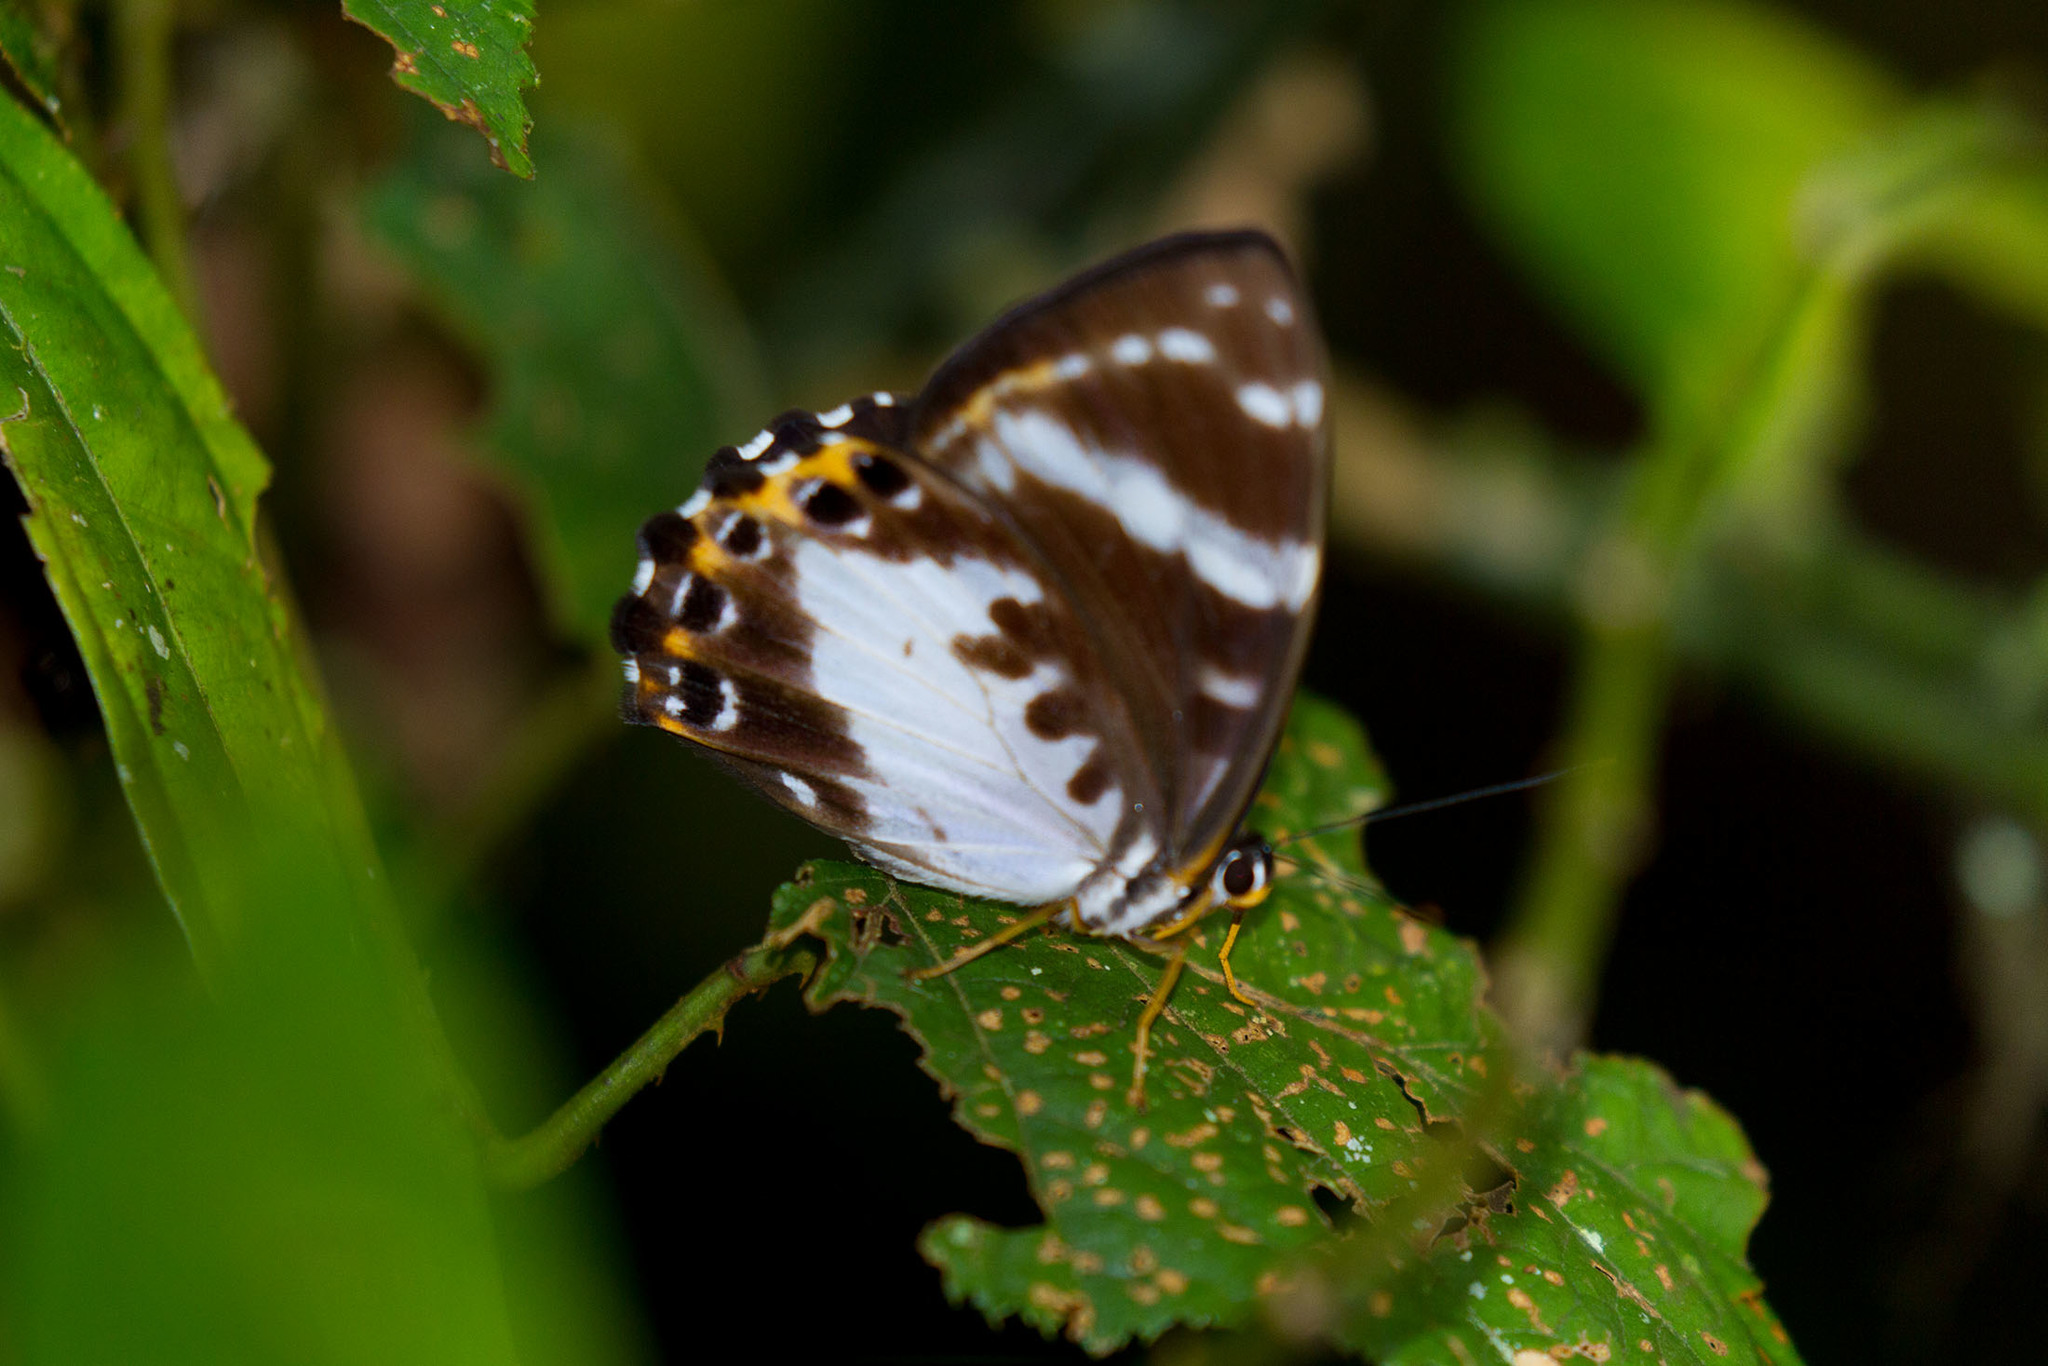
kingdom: Animalia
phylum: Arthropoda
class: Insecta
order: Lepidoptera
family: Riodinidae
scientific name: Riodinidae
